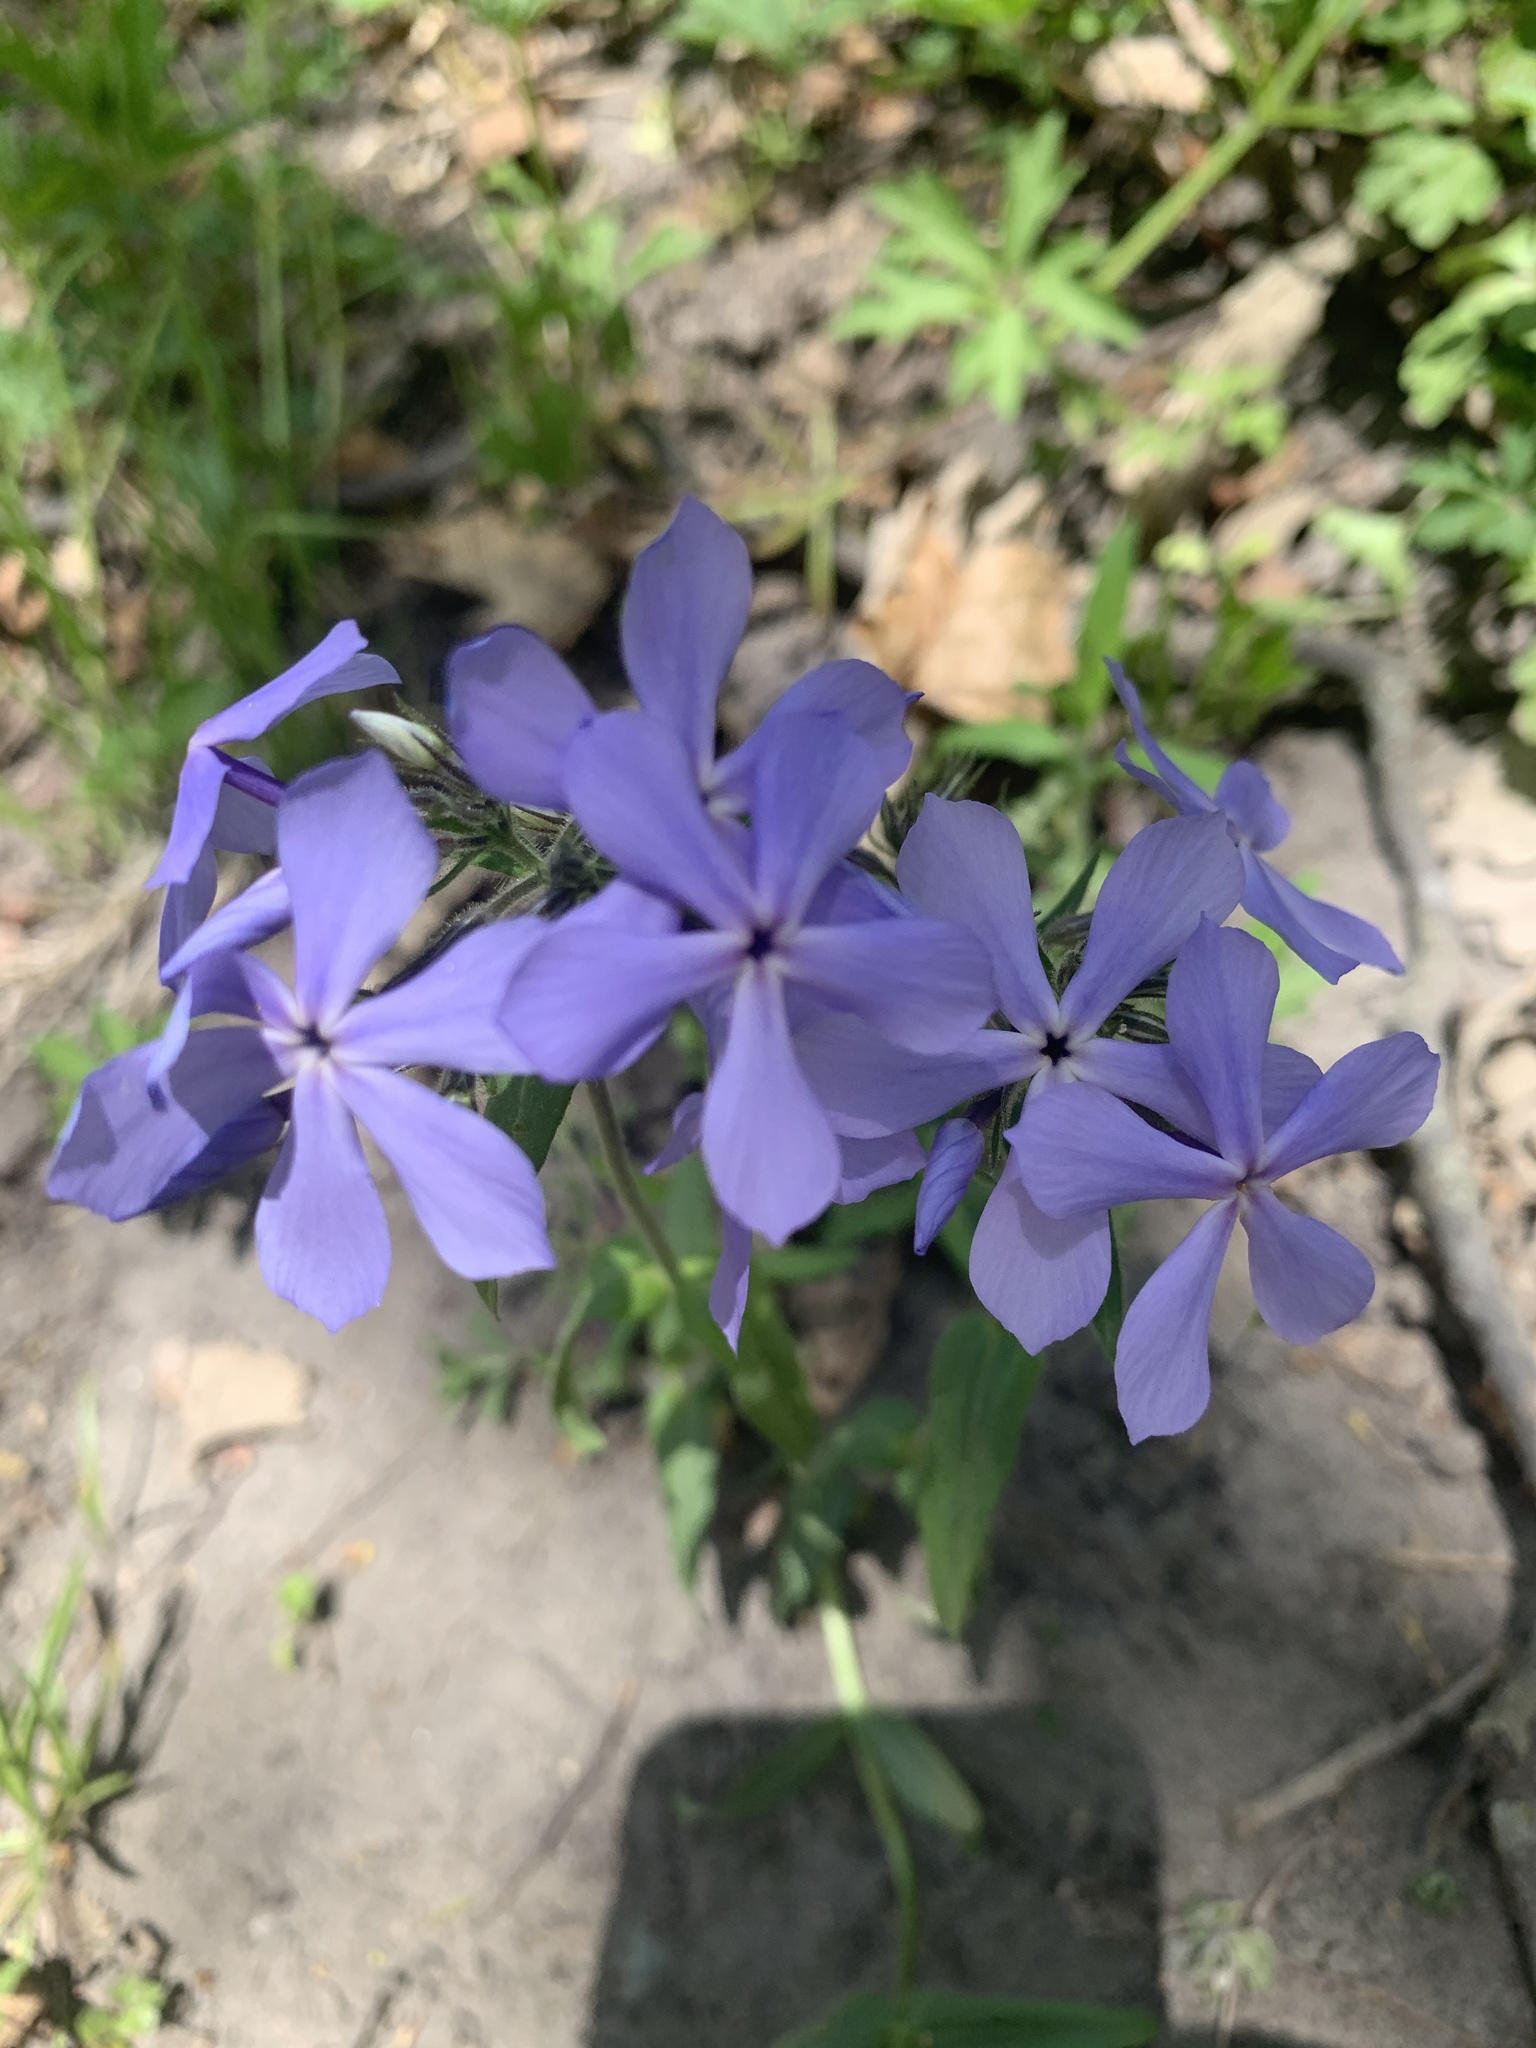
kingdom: Plantae
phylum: Tracheophyta
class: Magnoliopsida
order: Ericales
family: Polemoniaceae
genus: Phlox
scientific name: Phlox divaricata
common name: Blue phlox
